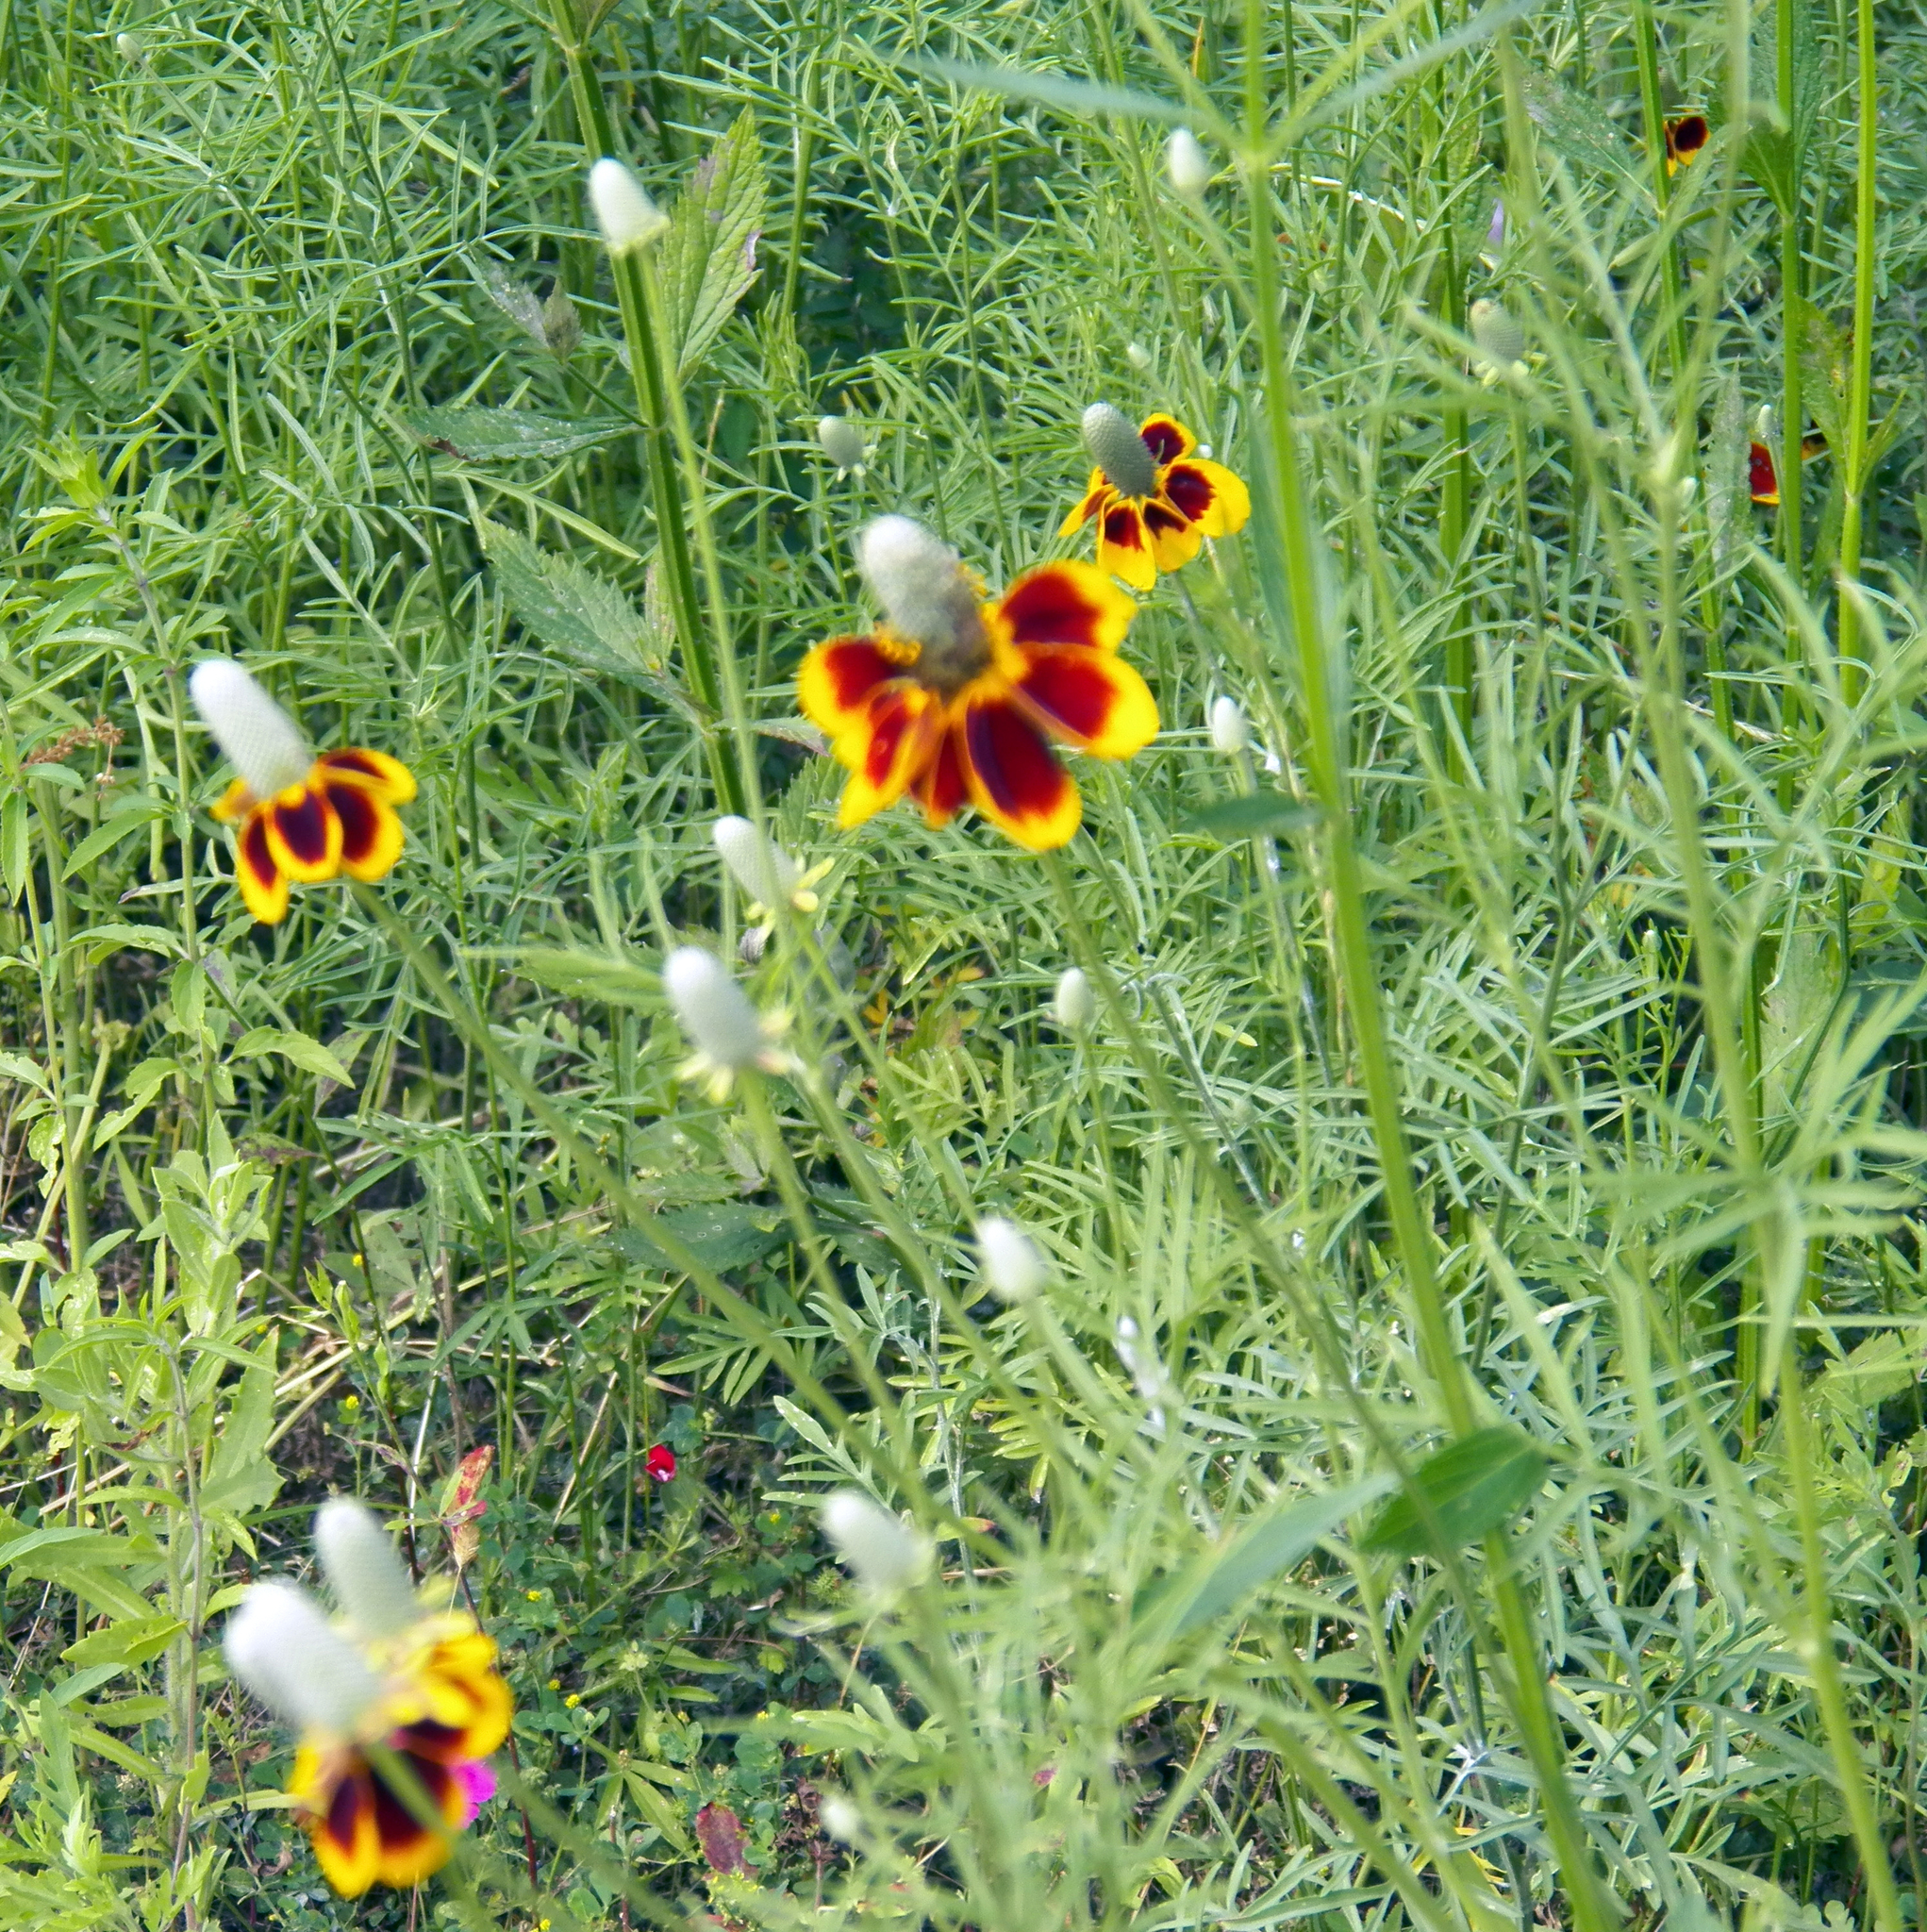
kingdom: Plantae
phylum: Tracheophyta
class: Magnoliopsida
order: Asterales
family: Asteraceae
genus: Ratibida
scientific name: Ratibida columnifera
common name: Prairie coneflower
